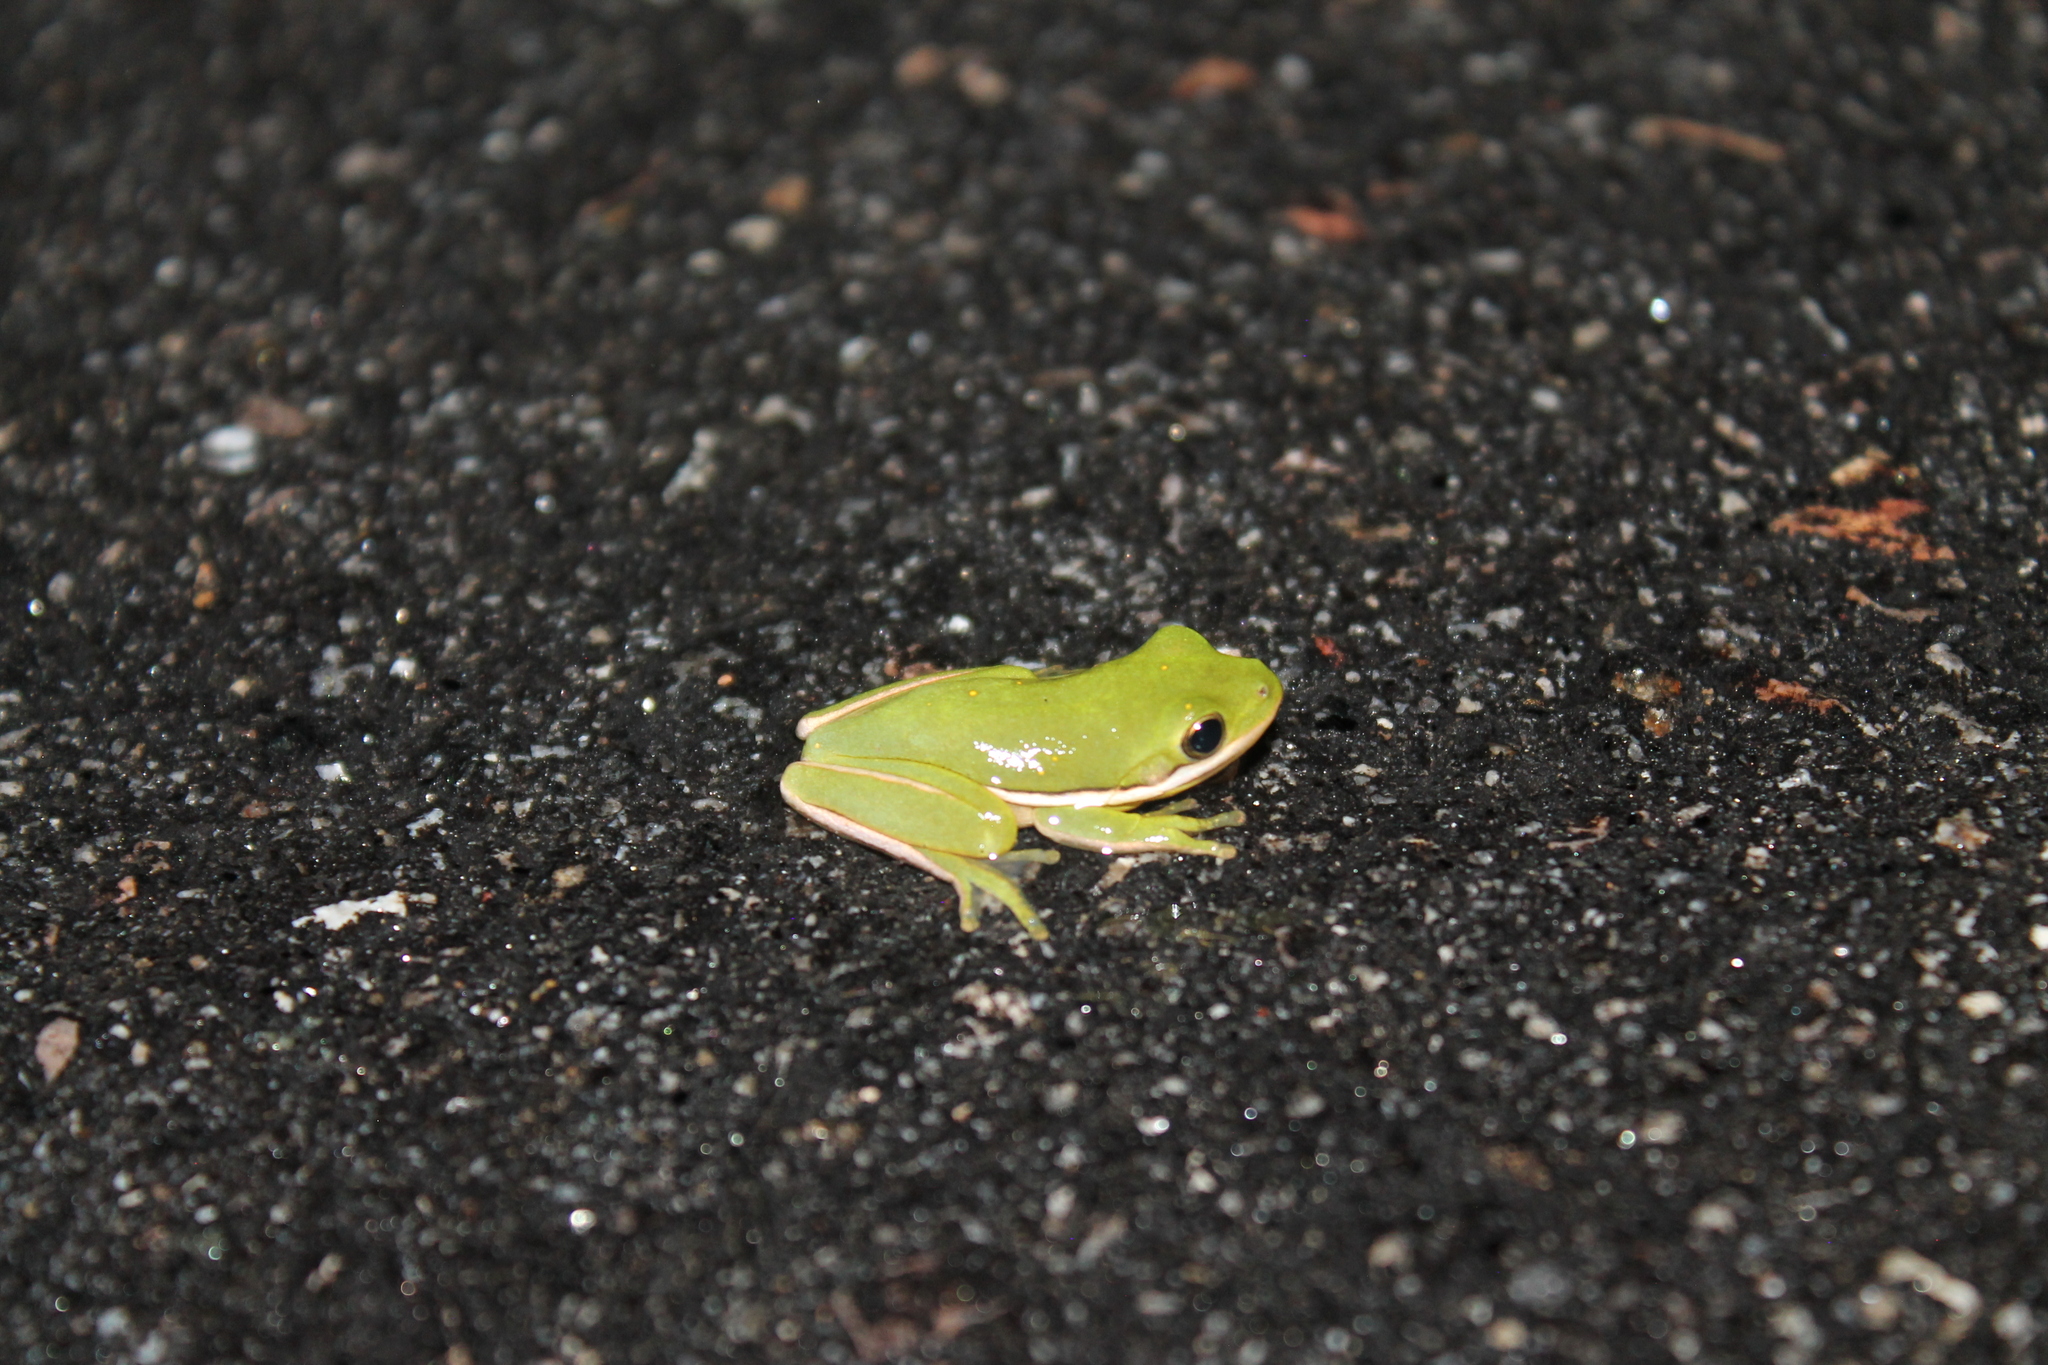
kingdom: Animalia
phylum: Chordata
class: Amphibia
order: Anura
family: Hylidae
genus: Dryophytes
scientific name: Dryophytes cinereus
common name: Green treefrog
